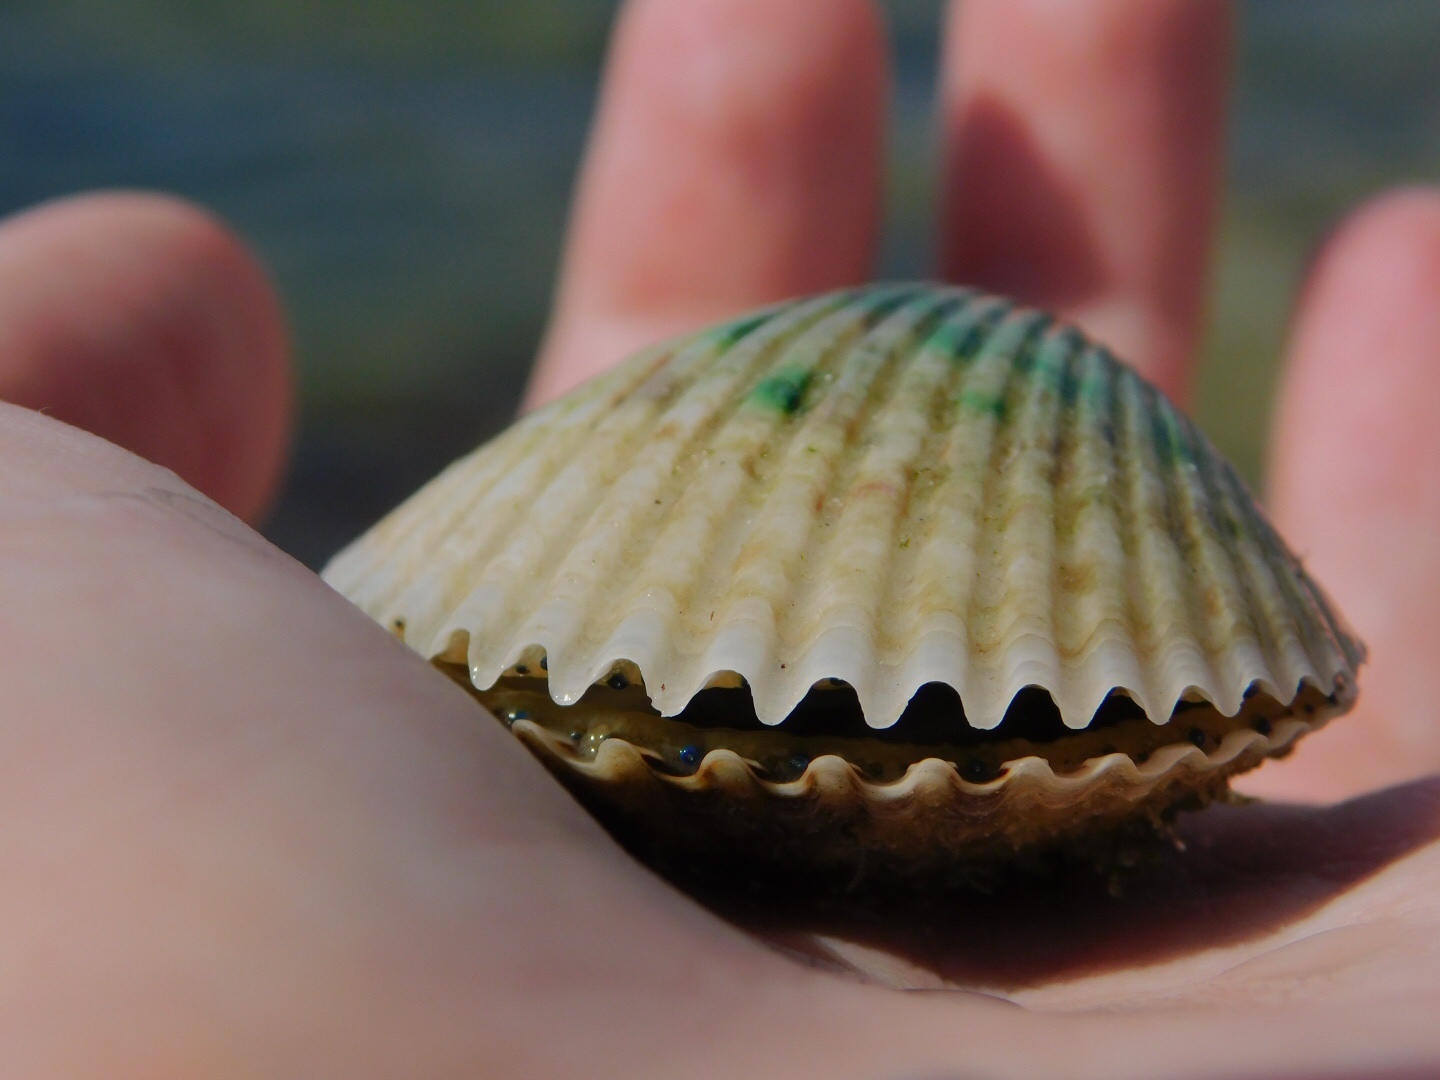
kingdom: Animalia
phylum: Mollusca
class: Bivalvia
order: Pectinida
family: Pectinidae
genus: Argopecten
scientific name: Argopecten irradians
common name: Atlantic bay scallop
